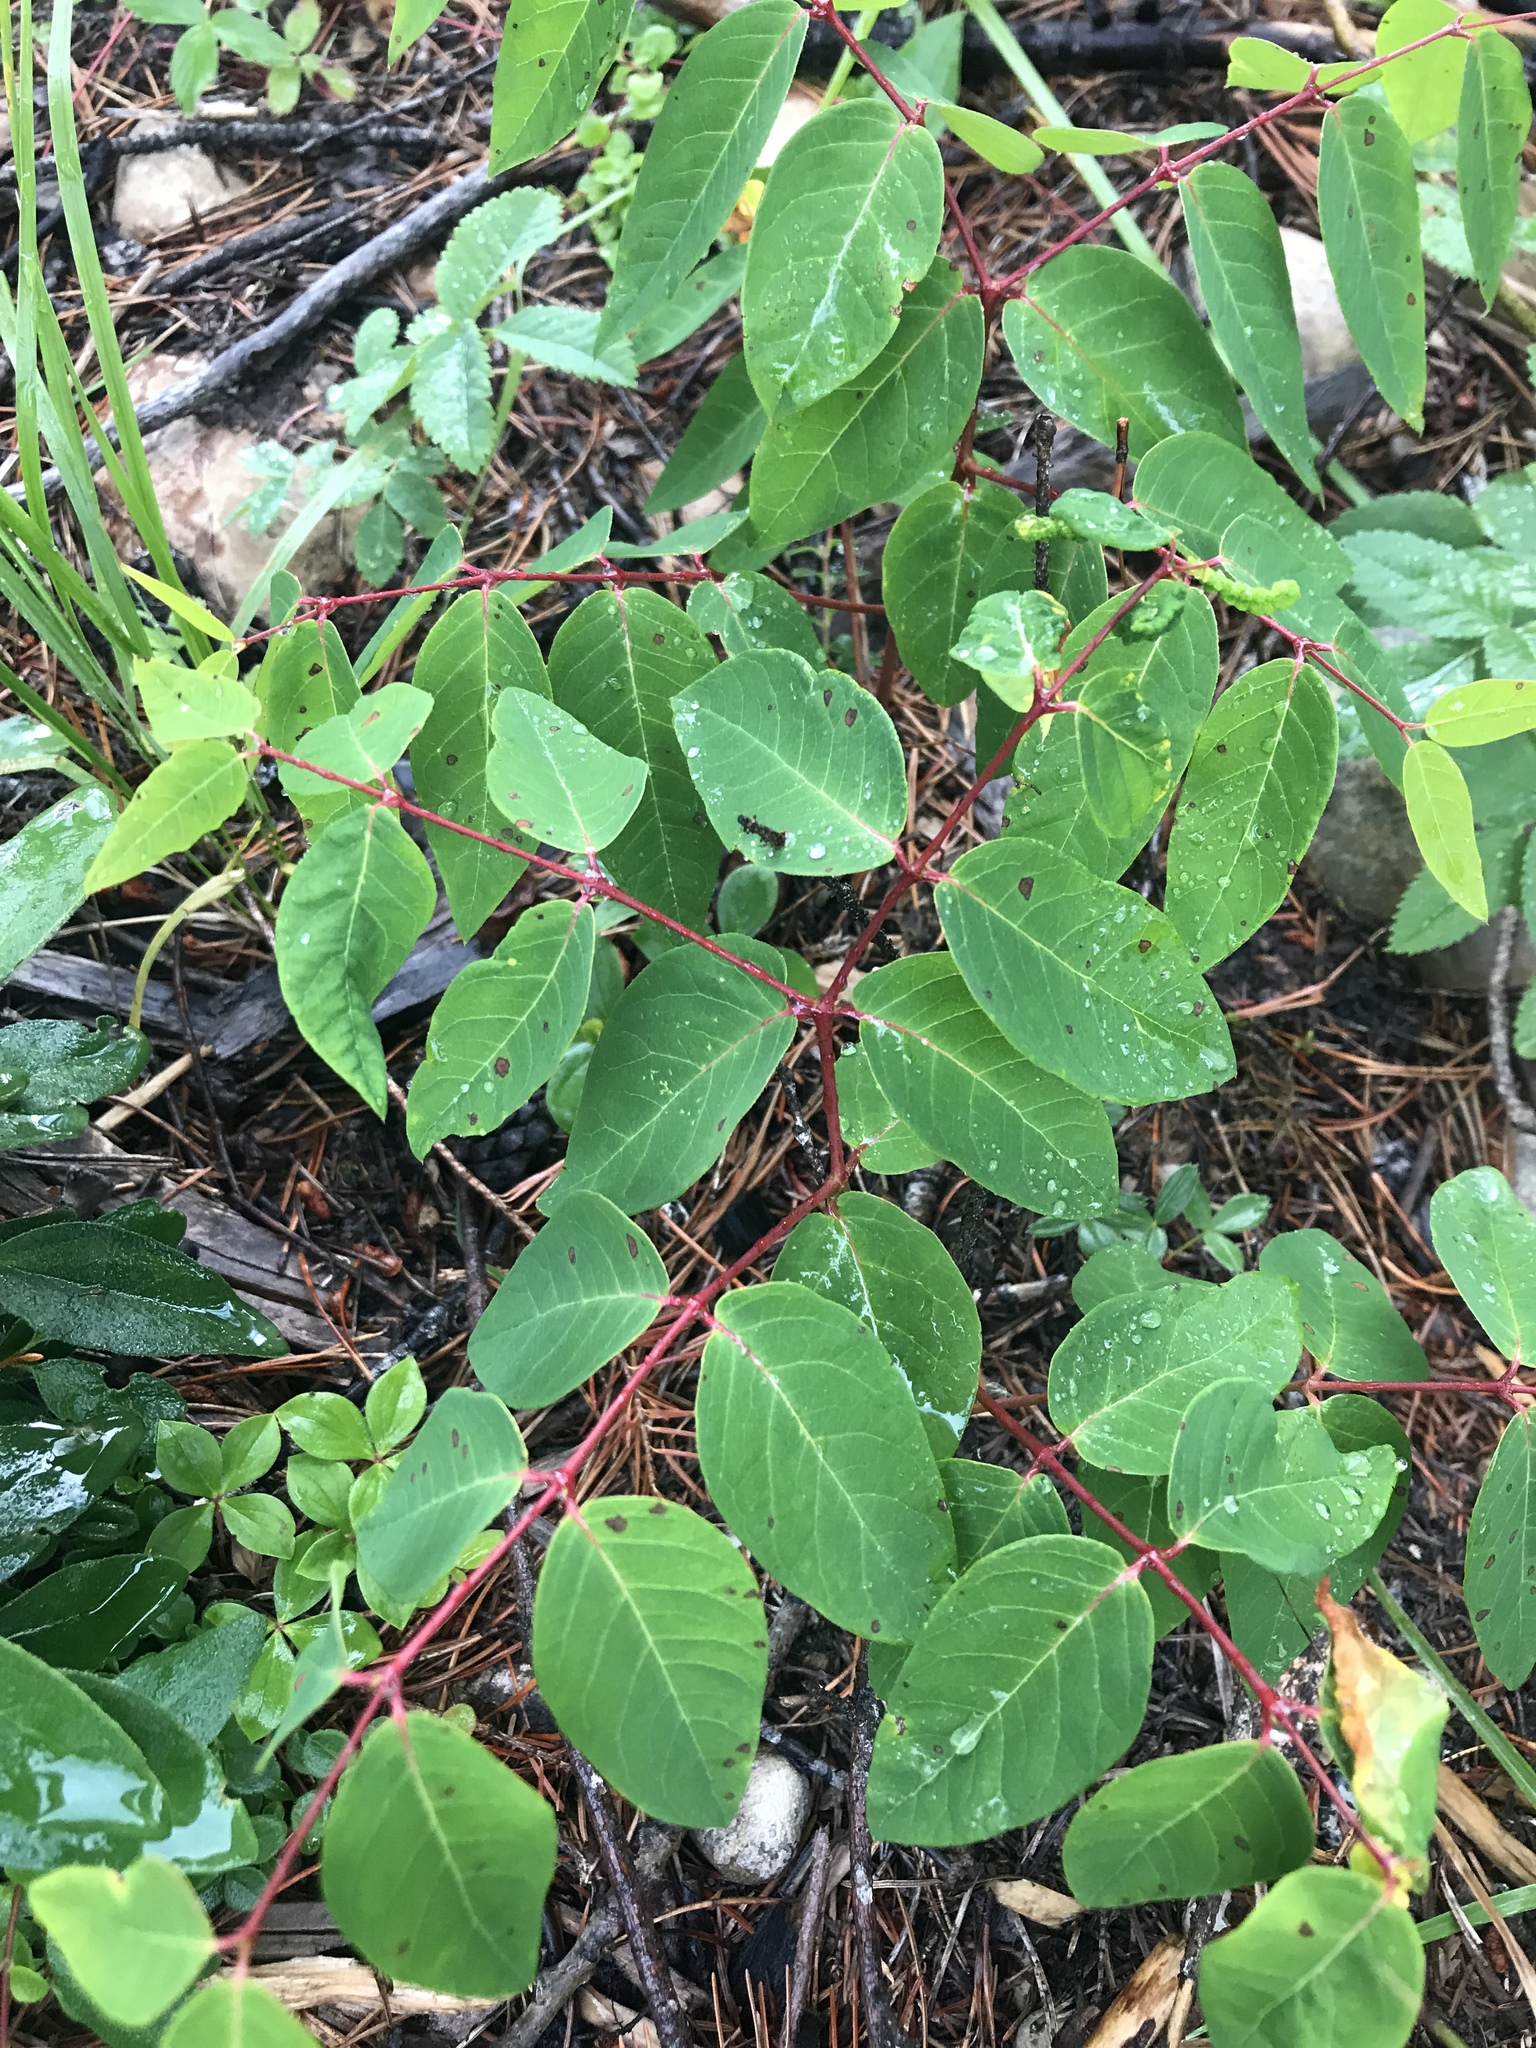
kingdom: Plantae
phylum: Tracheophyta
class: Magnoliopsida
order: Gentianales
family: Apocynaceae
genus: Apocynum
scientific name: Apocynum androsaemifolium
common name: Spreading dogbane
